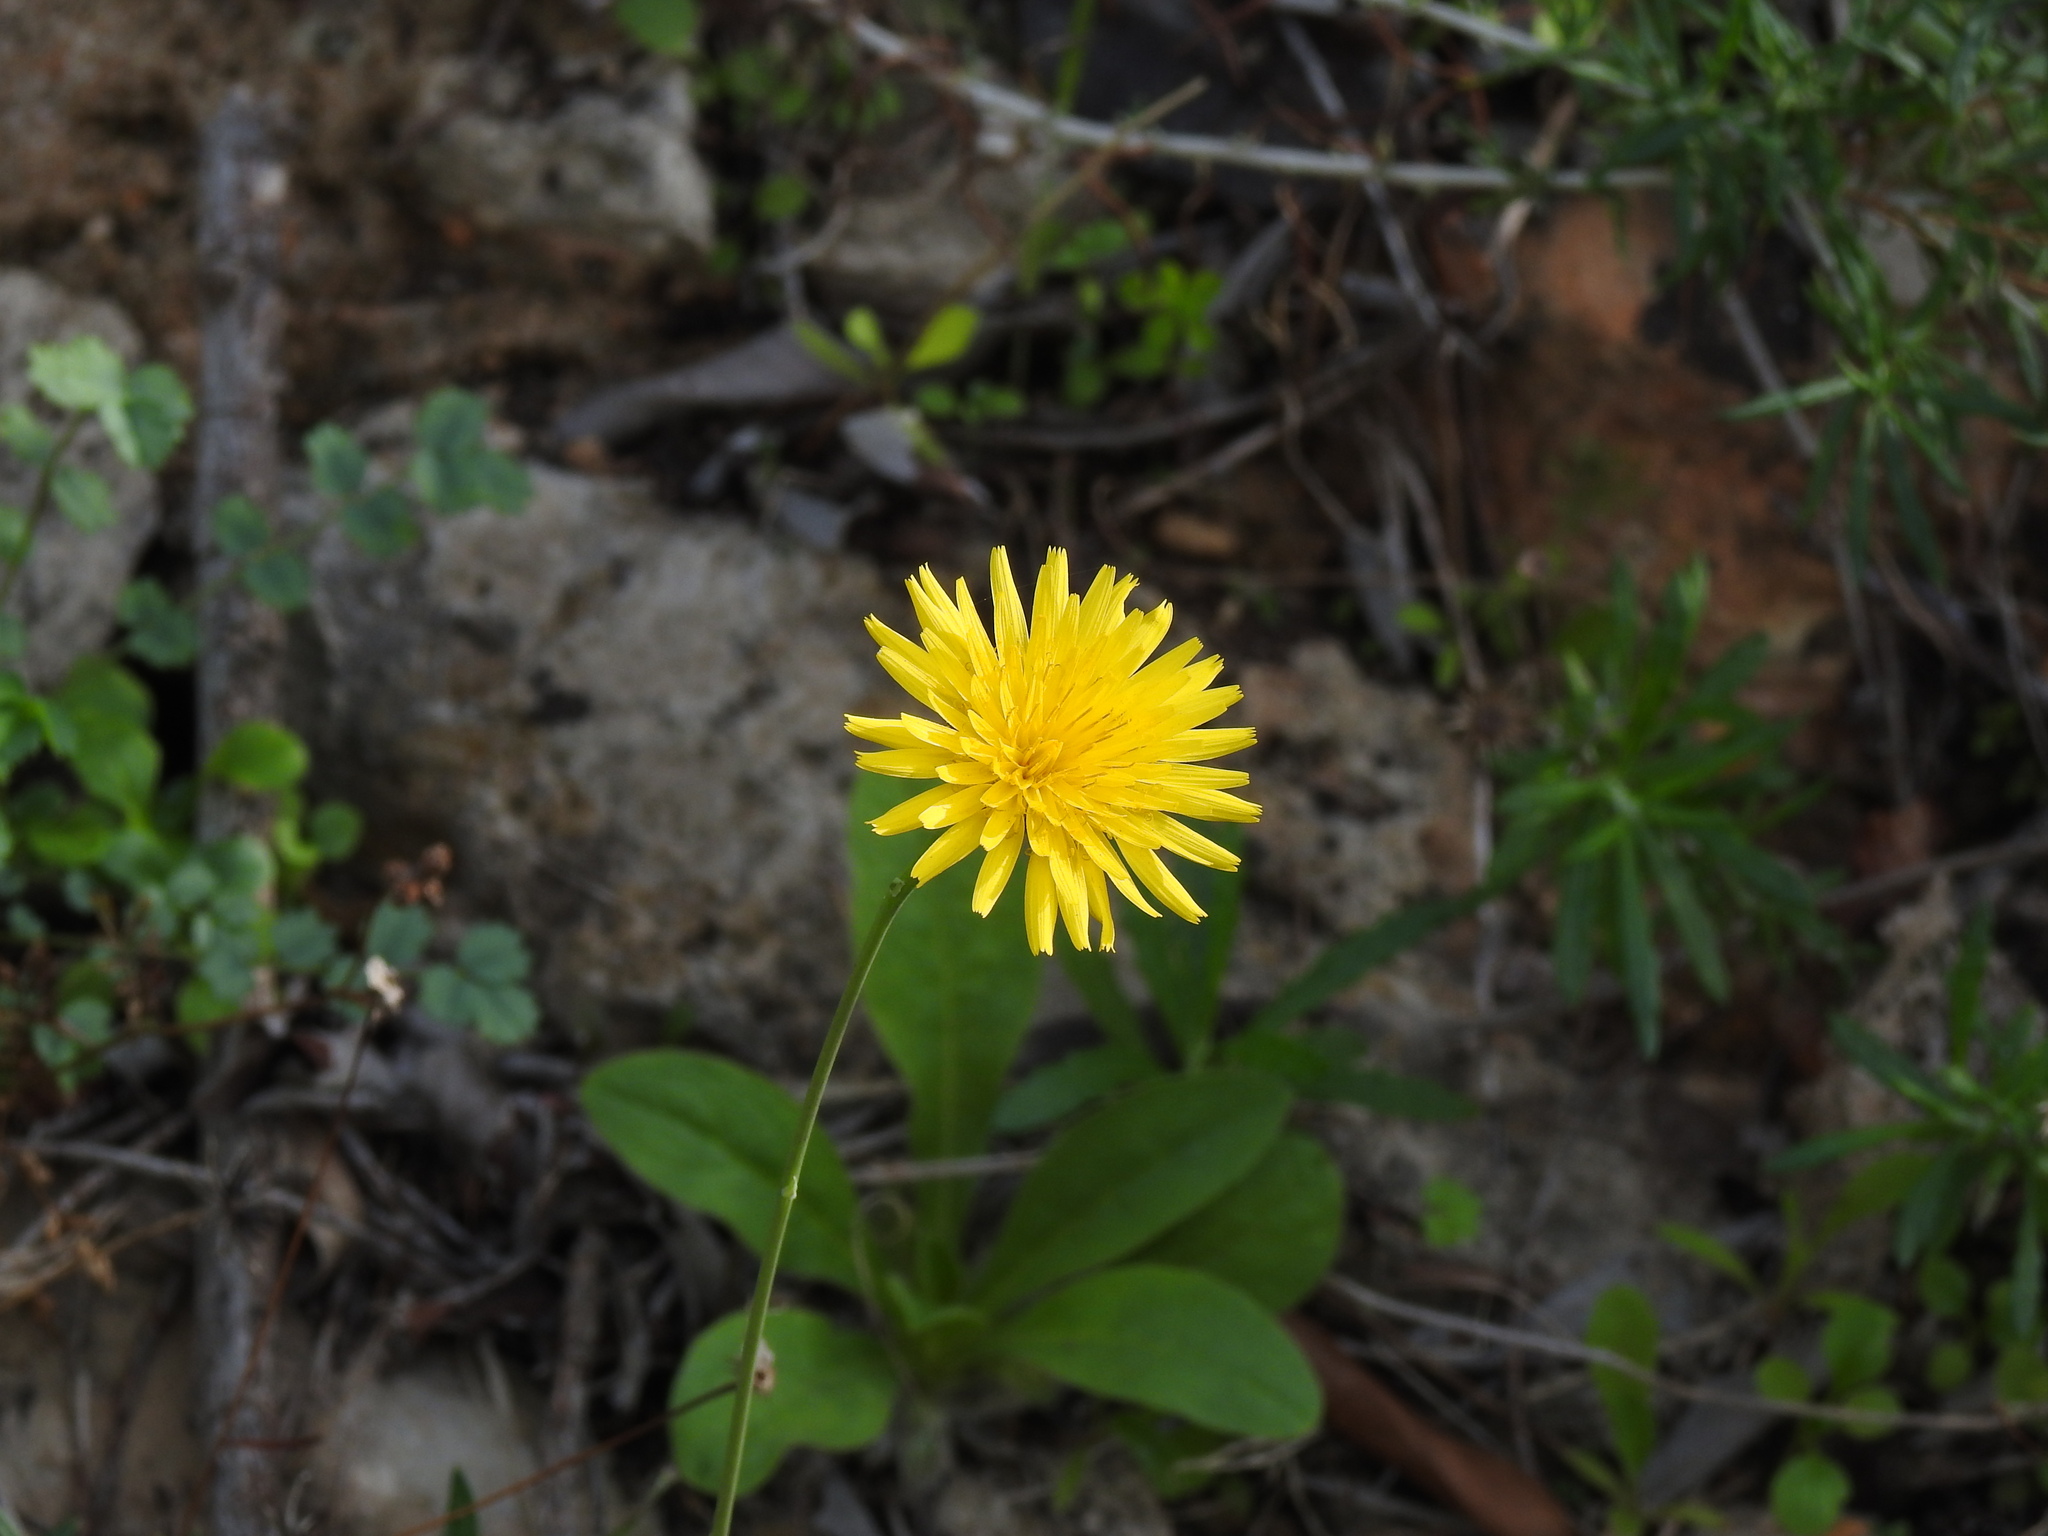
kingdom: Plantae
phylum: Tracheophyta
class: Magnoliopsida
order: Asterales
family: Asteraceae
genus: Reichardia
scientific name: Reichardia picroides
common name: Common brighteyes
